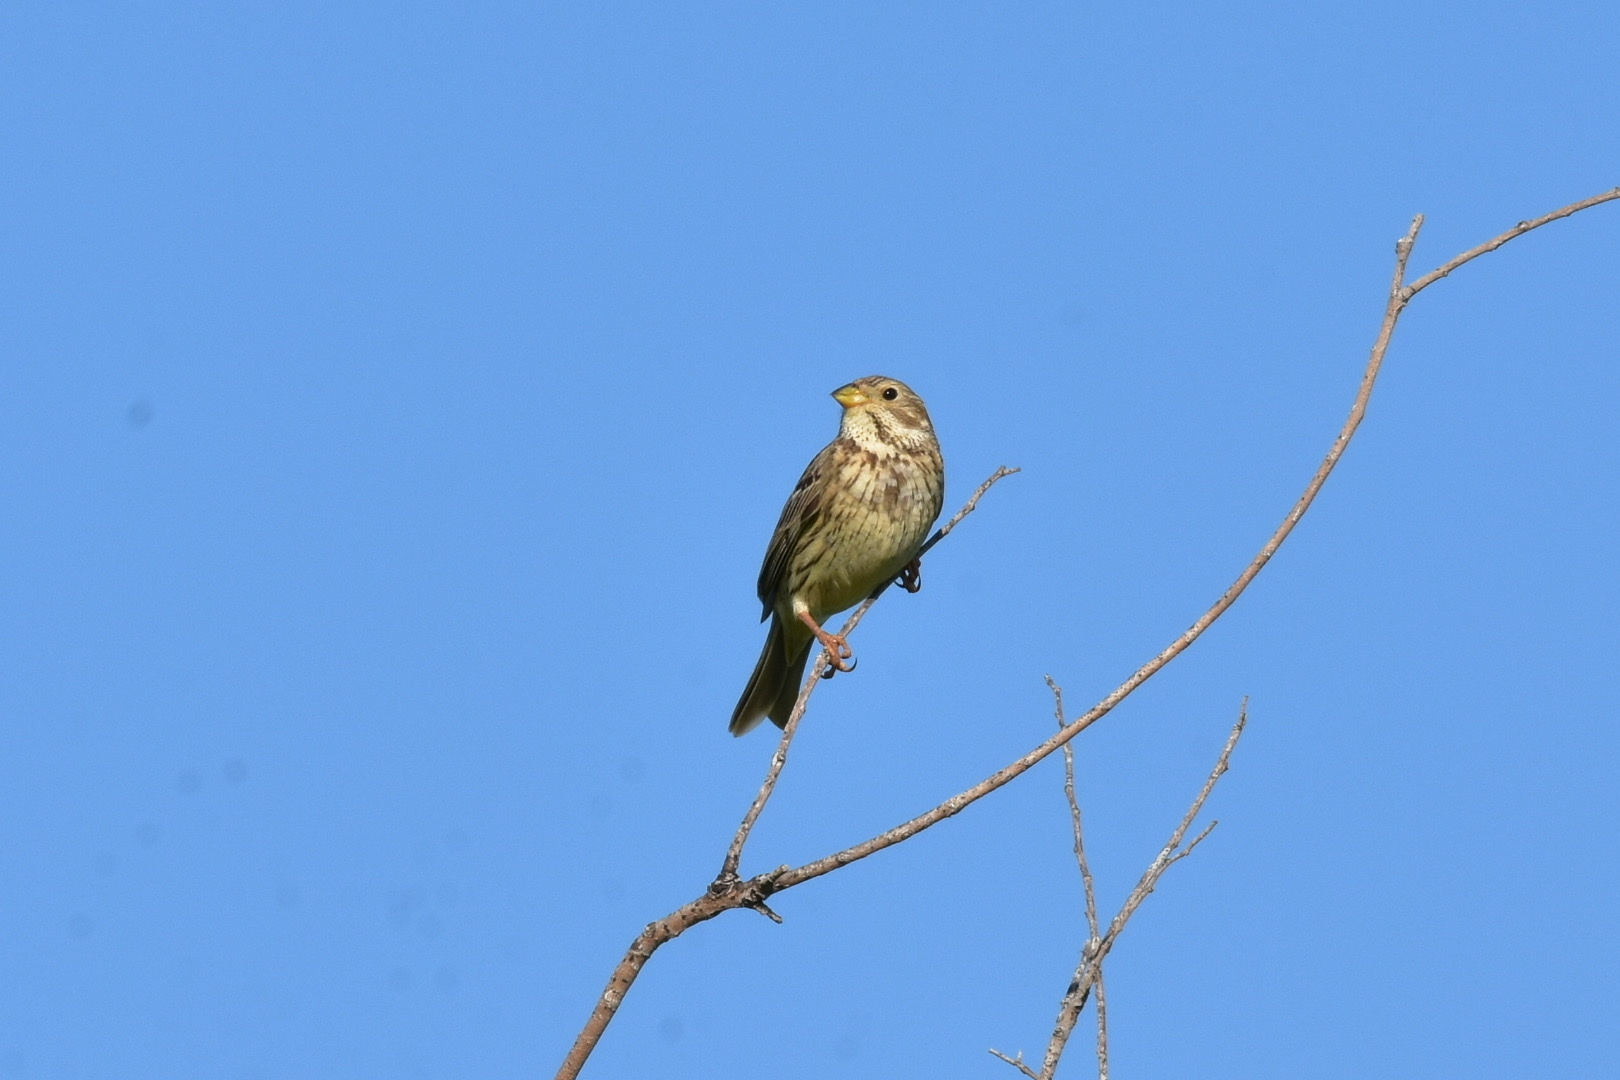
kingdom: Animalia
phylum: Chordata
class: Aves
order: Passeriformes
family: Emberizidae
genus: Emberiza
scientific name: Emberiza calandra
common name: Corn bunting
